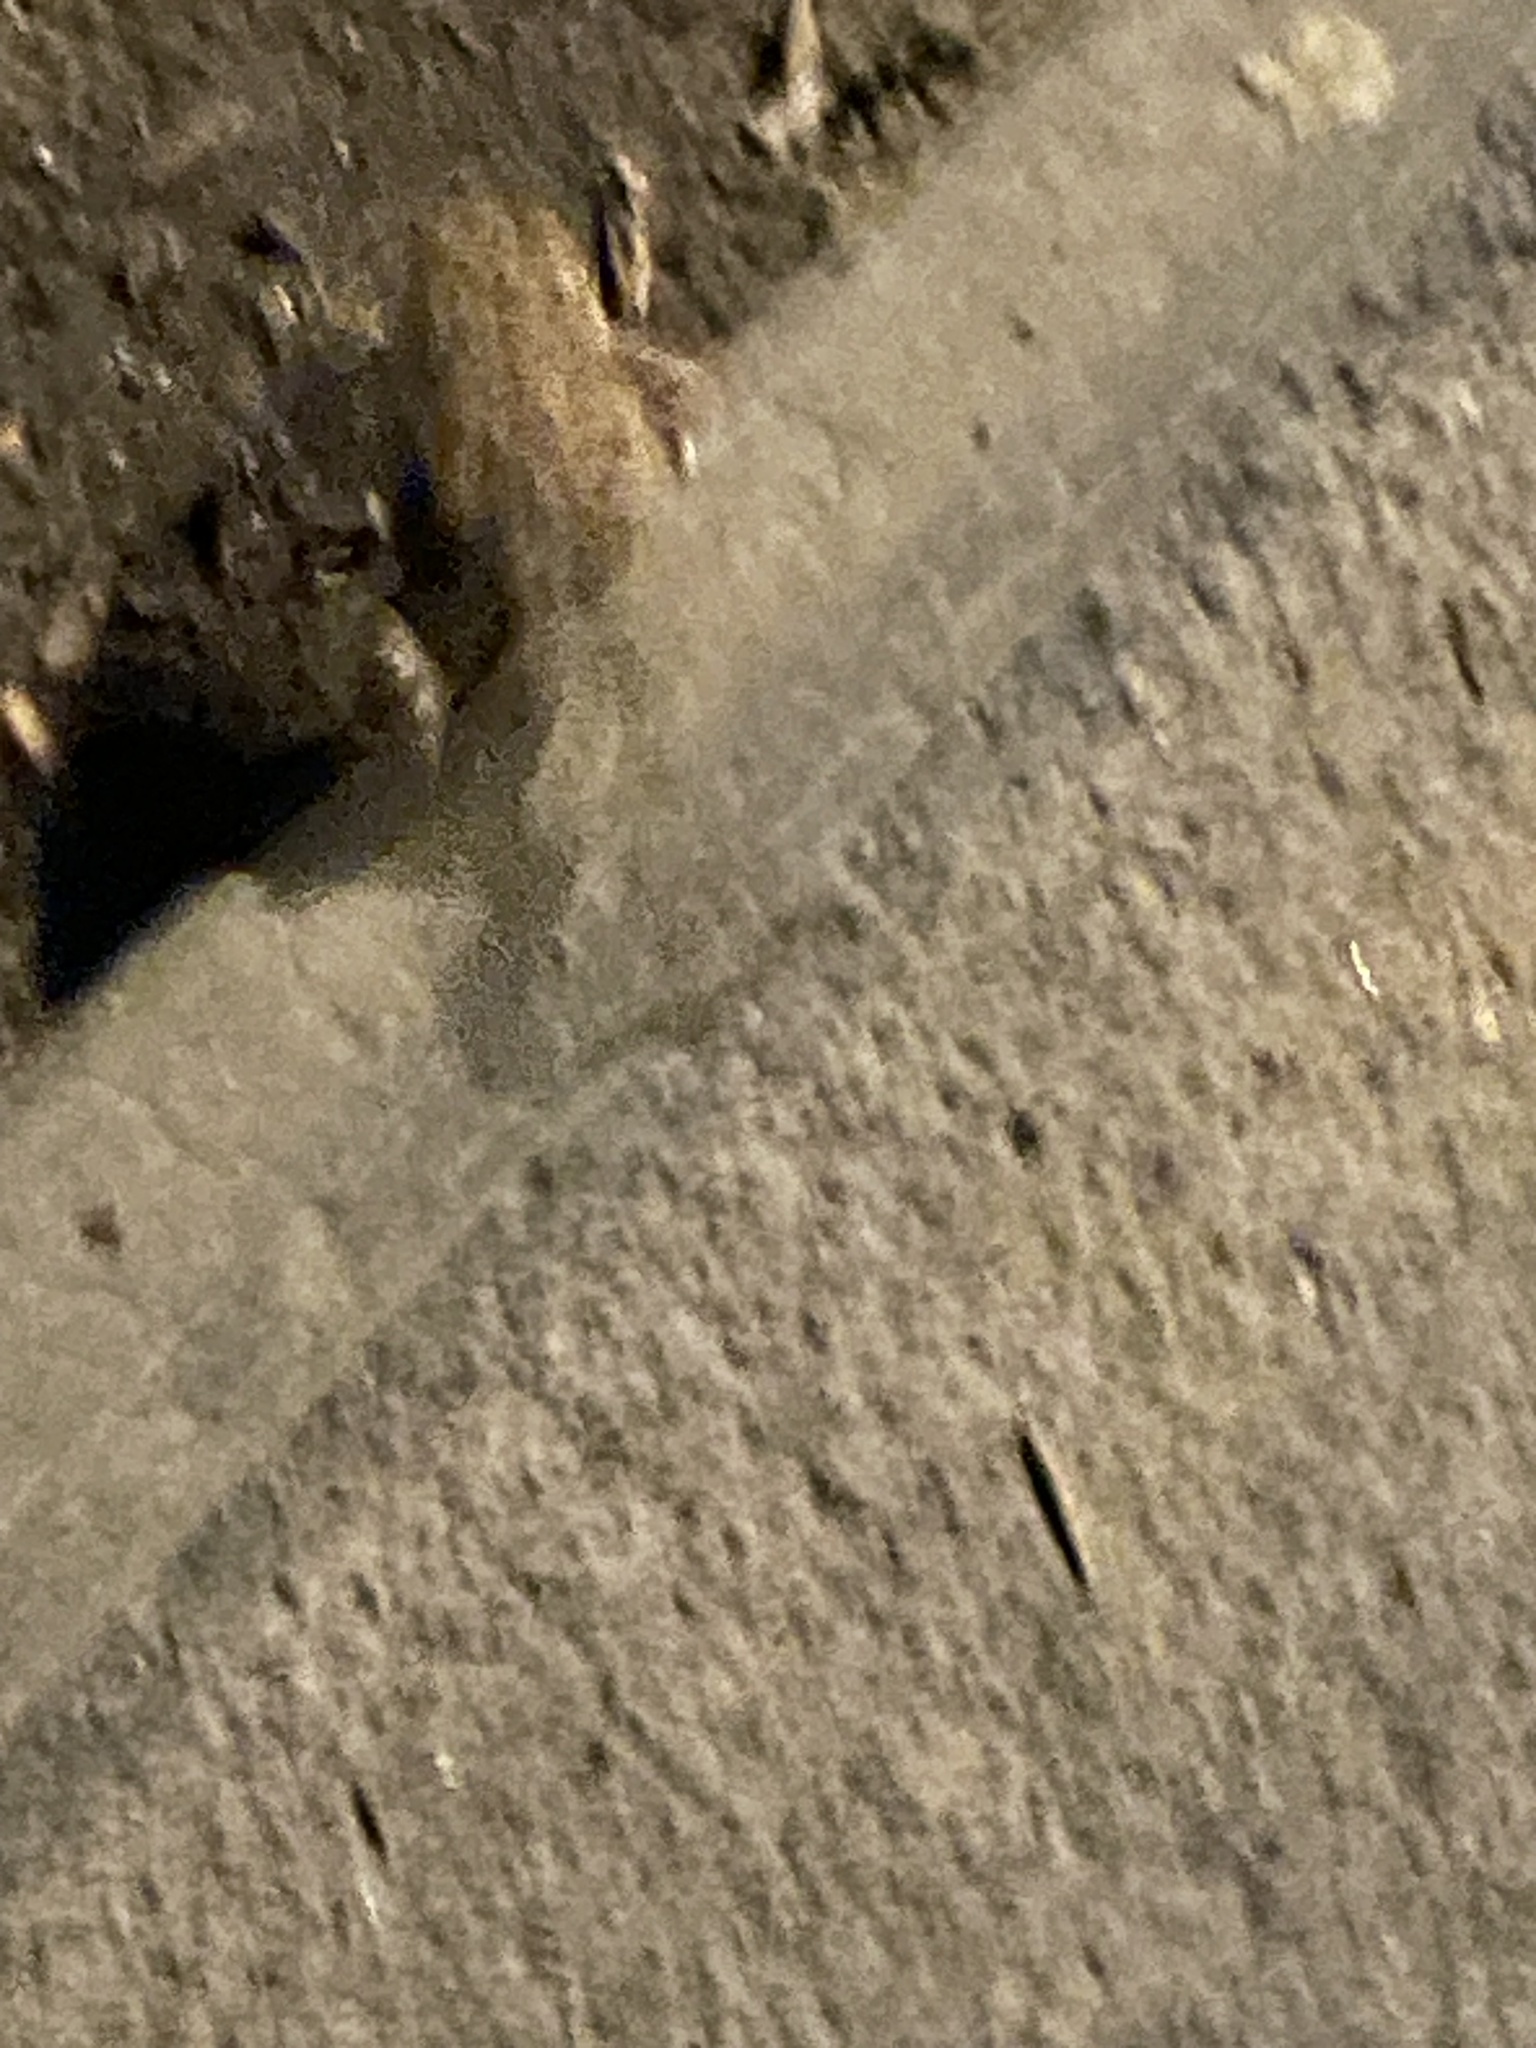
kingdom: Animalia
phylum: Chordata
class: Amphibia
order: Anura
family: Bufonidae
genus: Bufo
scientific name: Bufo bufo
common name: Common toad
